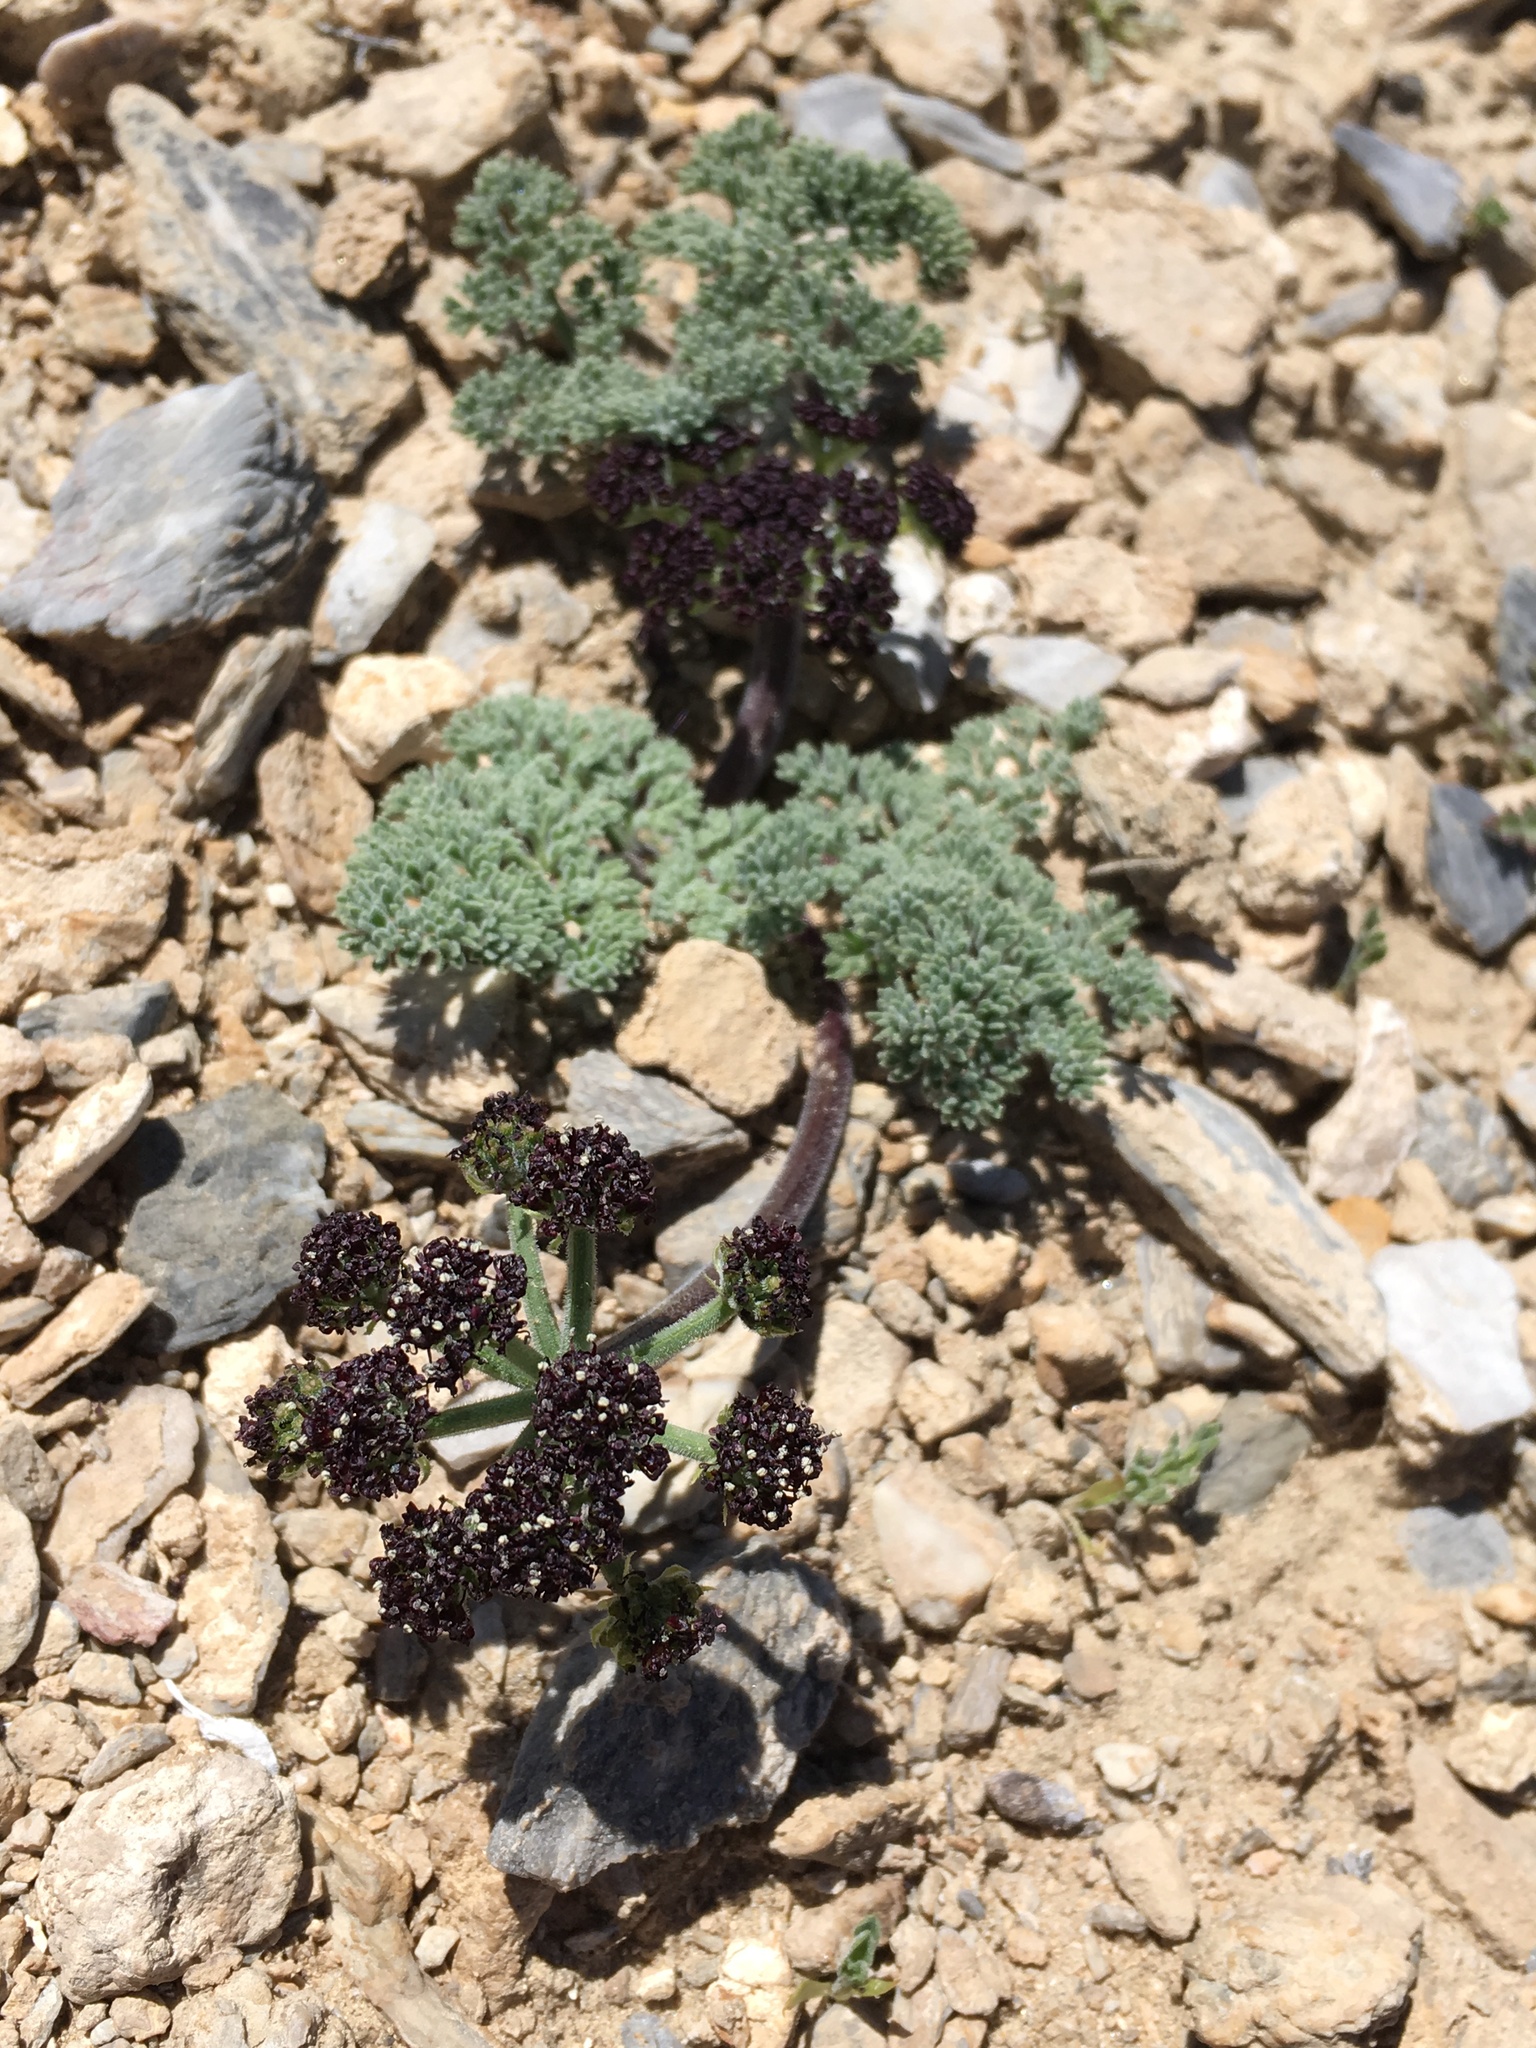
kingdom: Plantae
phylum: Tracheophyta
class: Magnoliopsida
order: Apiales
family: Apiaceae
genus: Lomatium
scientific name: Lomatium mohavense
